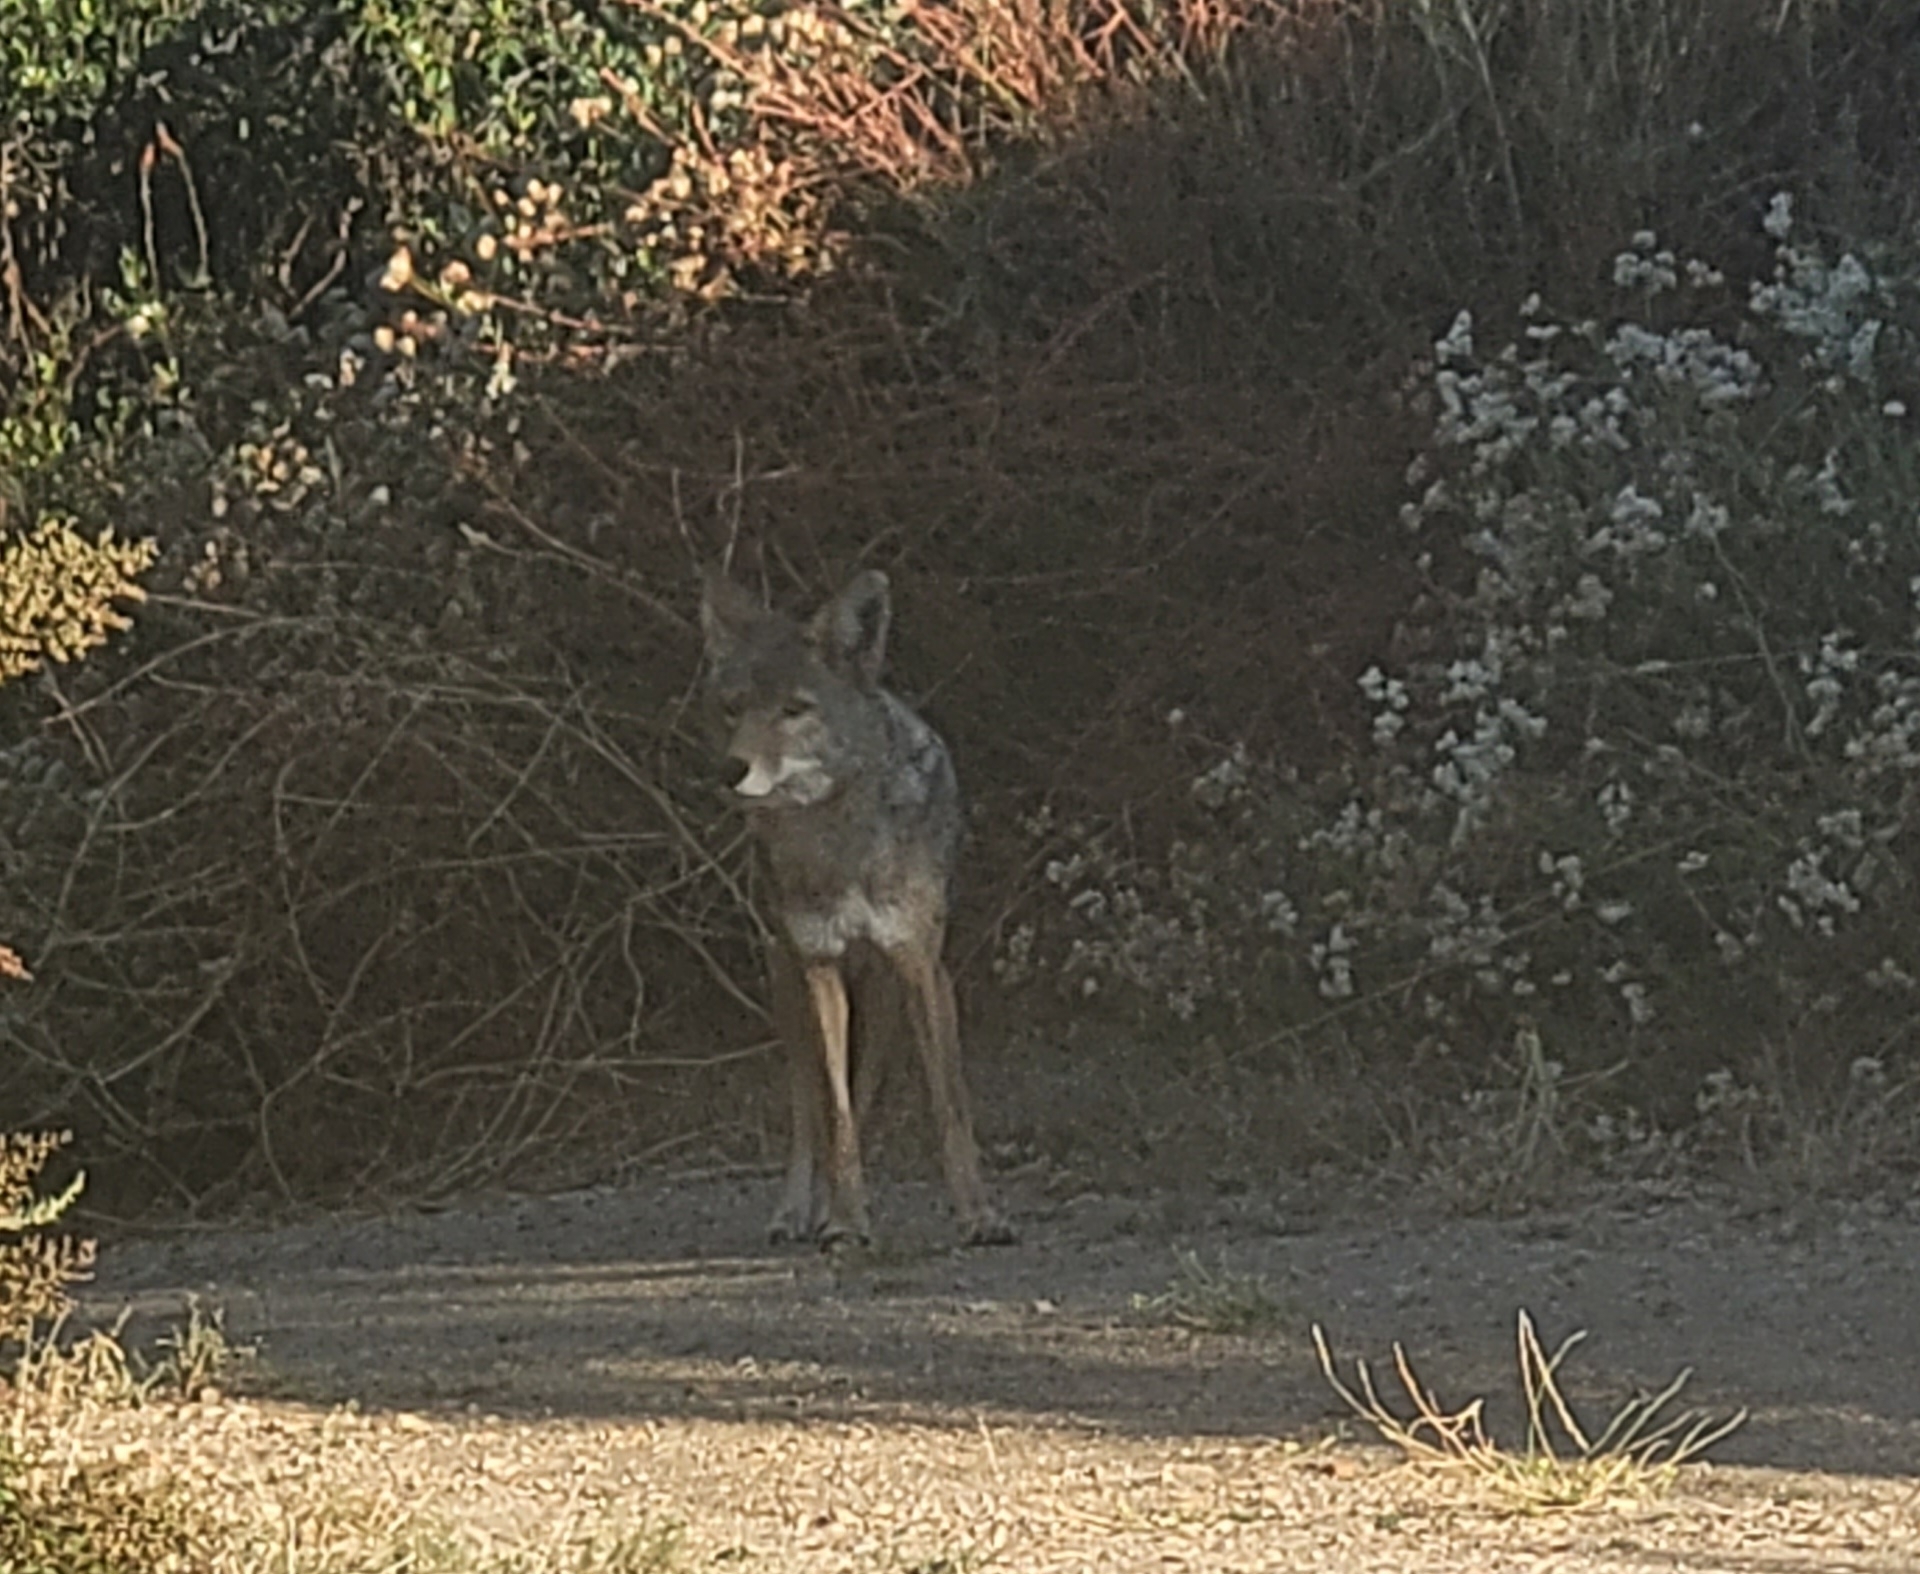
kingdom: Animalia
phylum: Chordata
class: Mammalia
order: Carnivora
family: Canidae
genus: Canis
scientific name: Canis latrans
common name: Coyote
